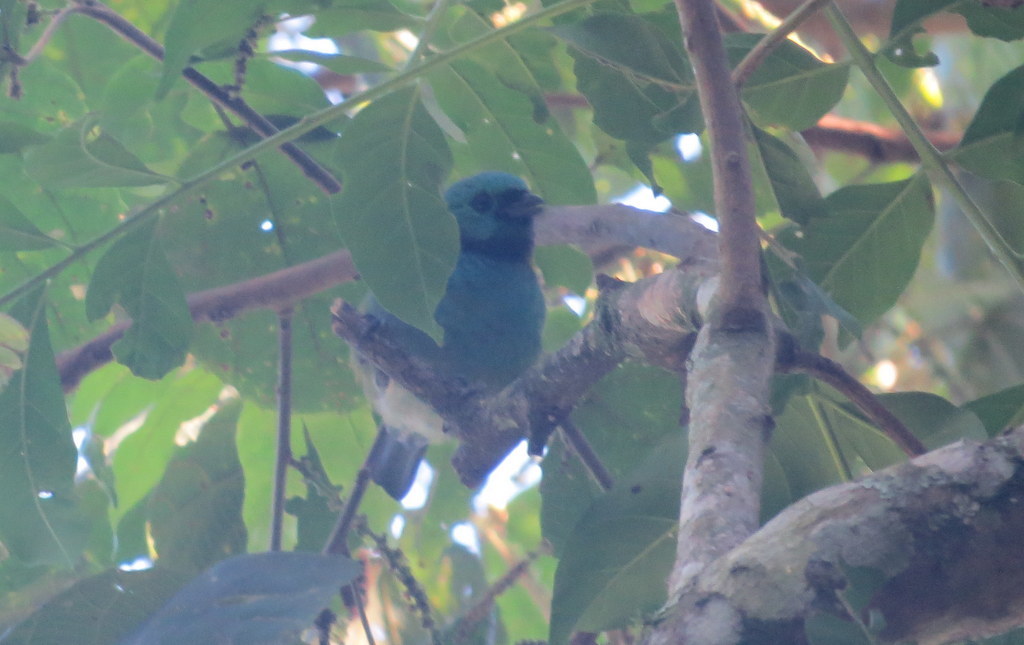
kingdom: Animalia
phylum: Chordata
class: Aves
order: Passeriformes
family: Thraupidae
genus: Tangara
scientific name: Tangara seledon
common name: Green-headed tanager
